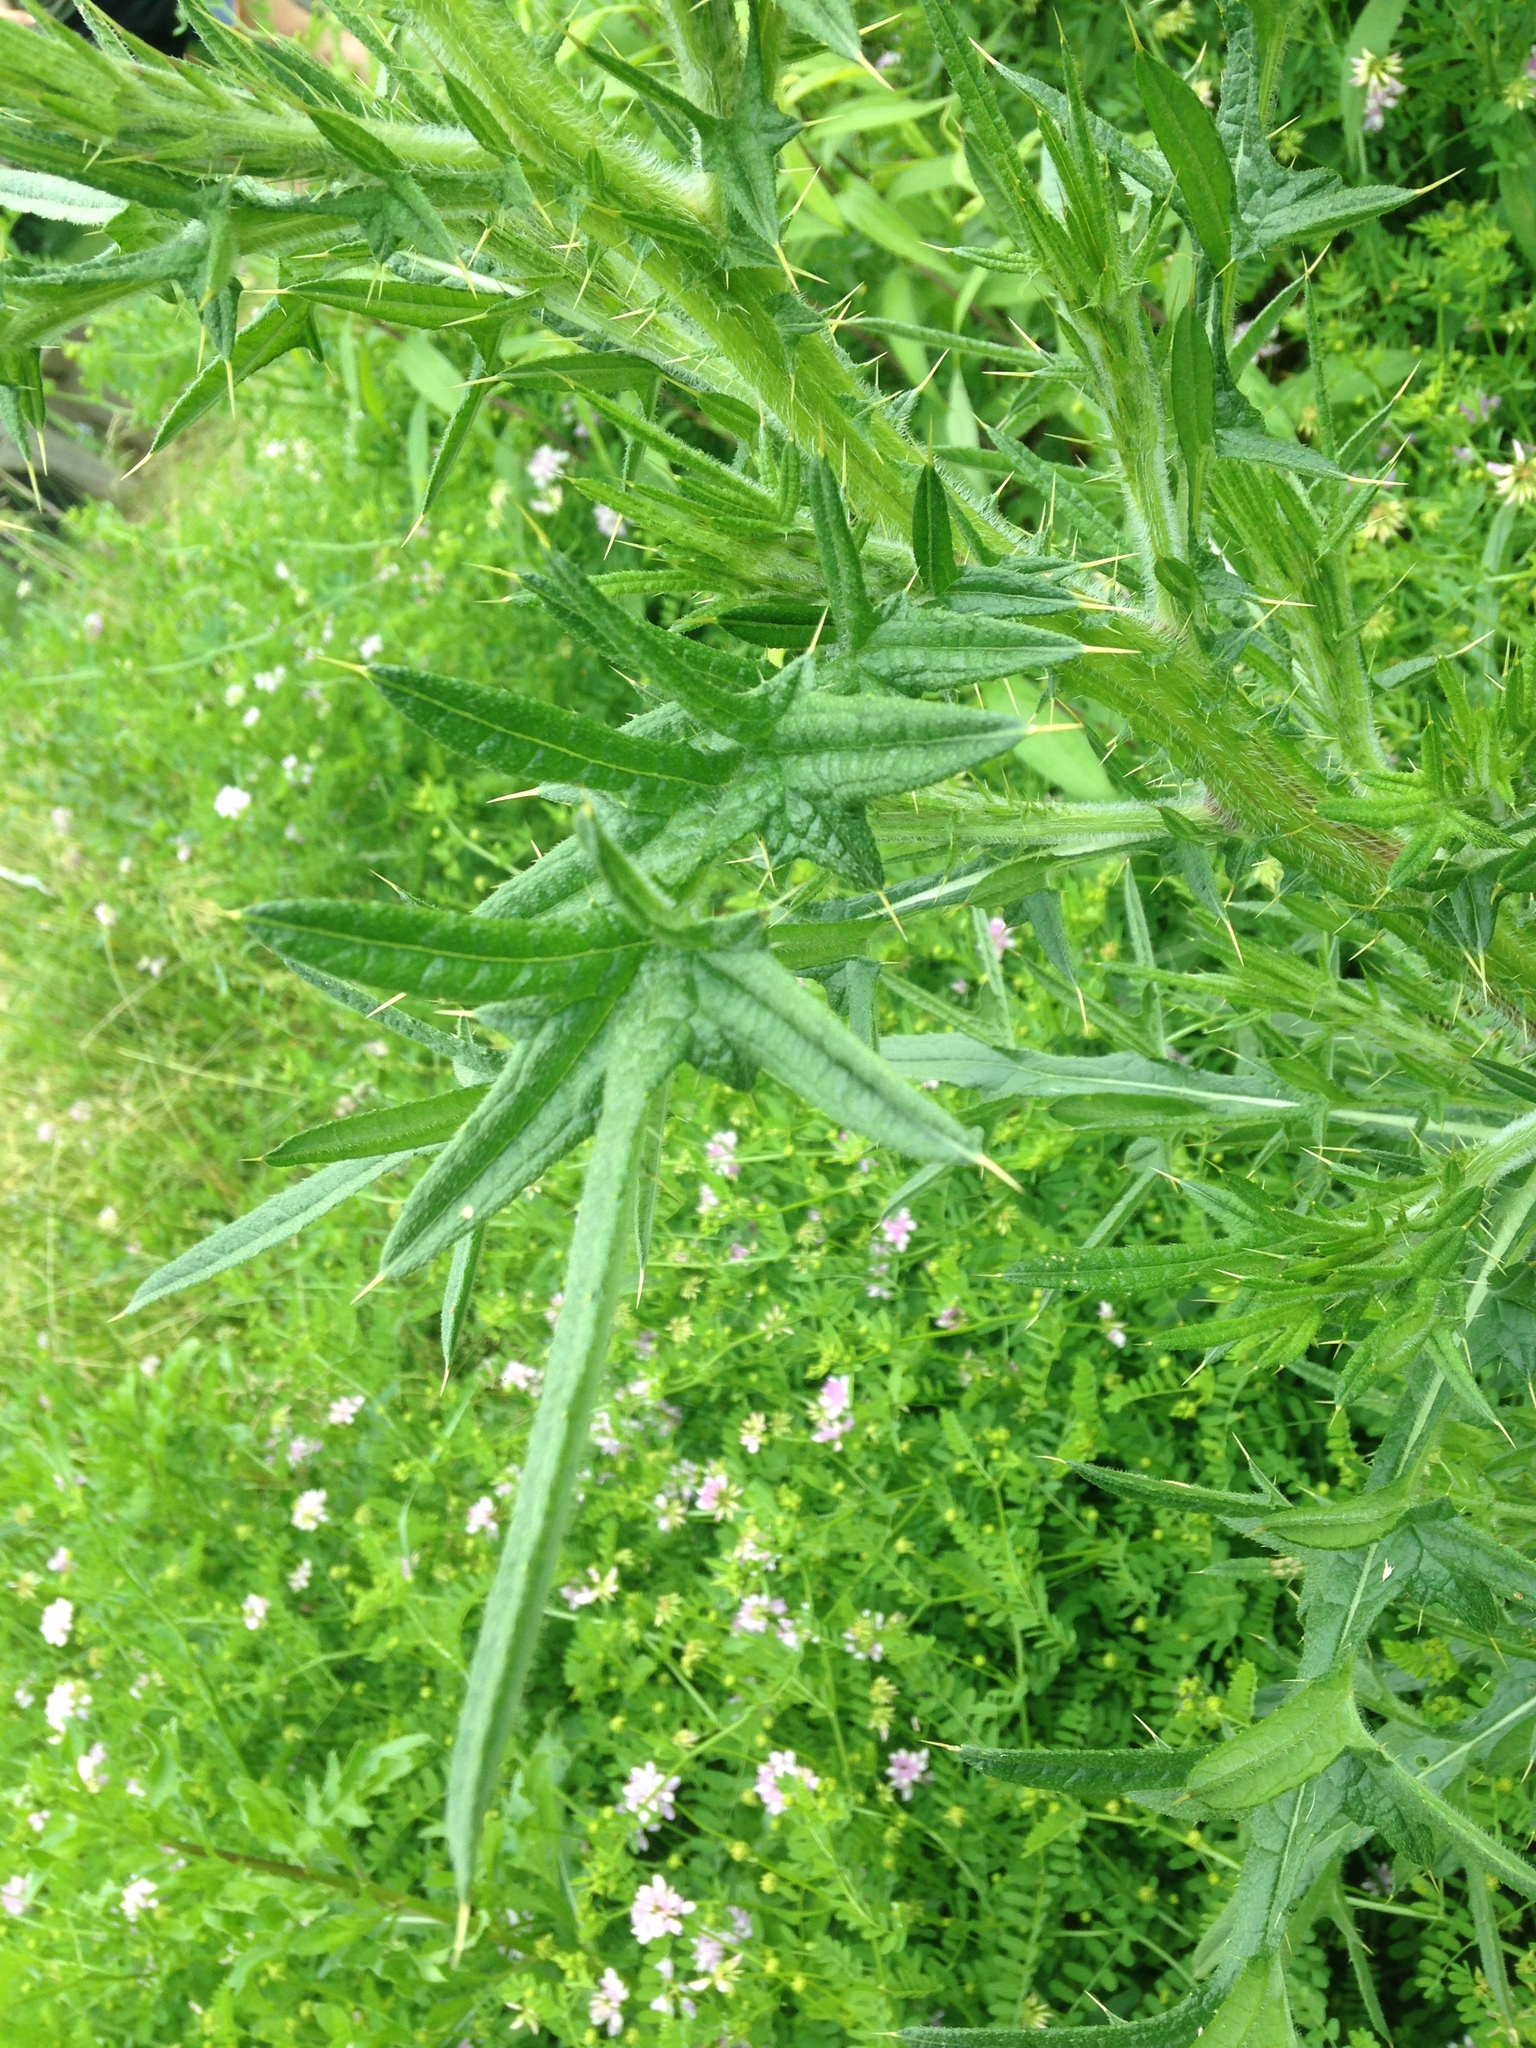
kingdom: Plantae
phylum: Tracheophyta
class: Magnoliopsida
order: Asterales
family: Asteraceae
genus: Cirsium
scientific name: Cirsium vulgare
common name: Bull thistle
